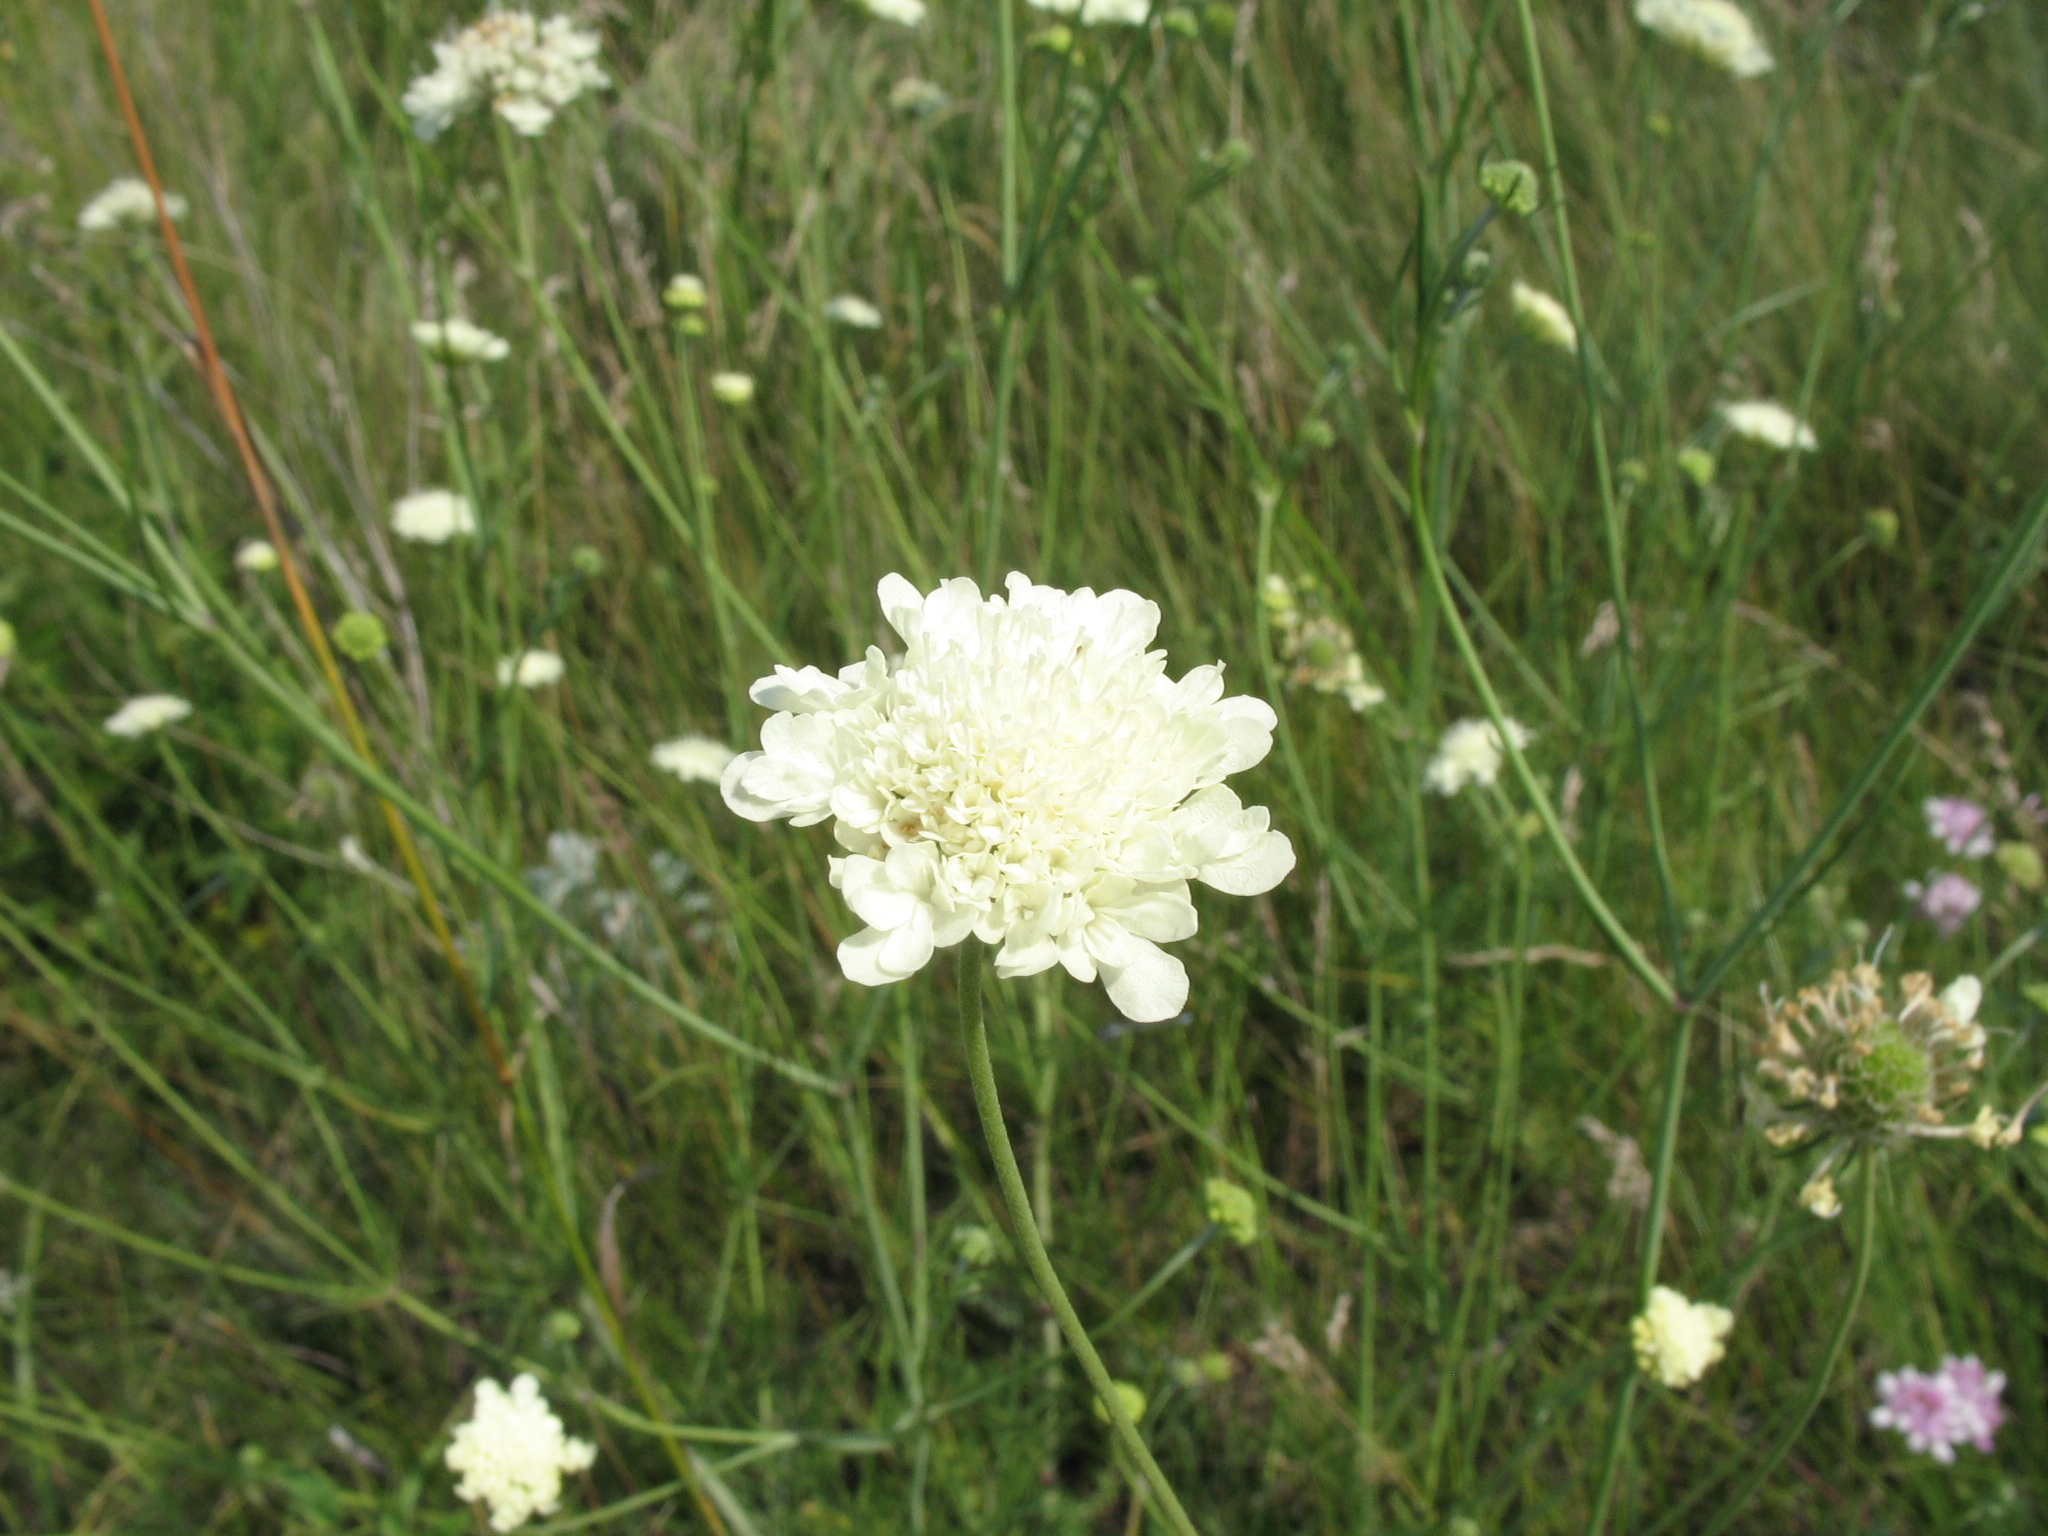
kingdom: Plantae
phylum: Tracheophyta
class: Magnoliopsida
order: Dipsacales
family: Caprifoliaceae
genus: Scabiosa
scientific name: Scabiosa ochroleuca
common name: Cream pincushions
